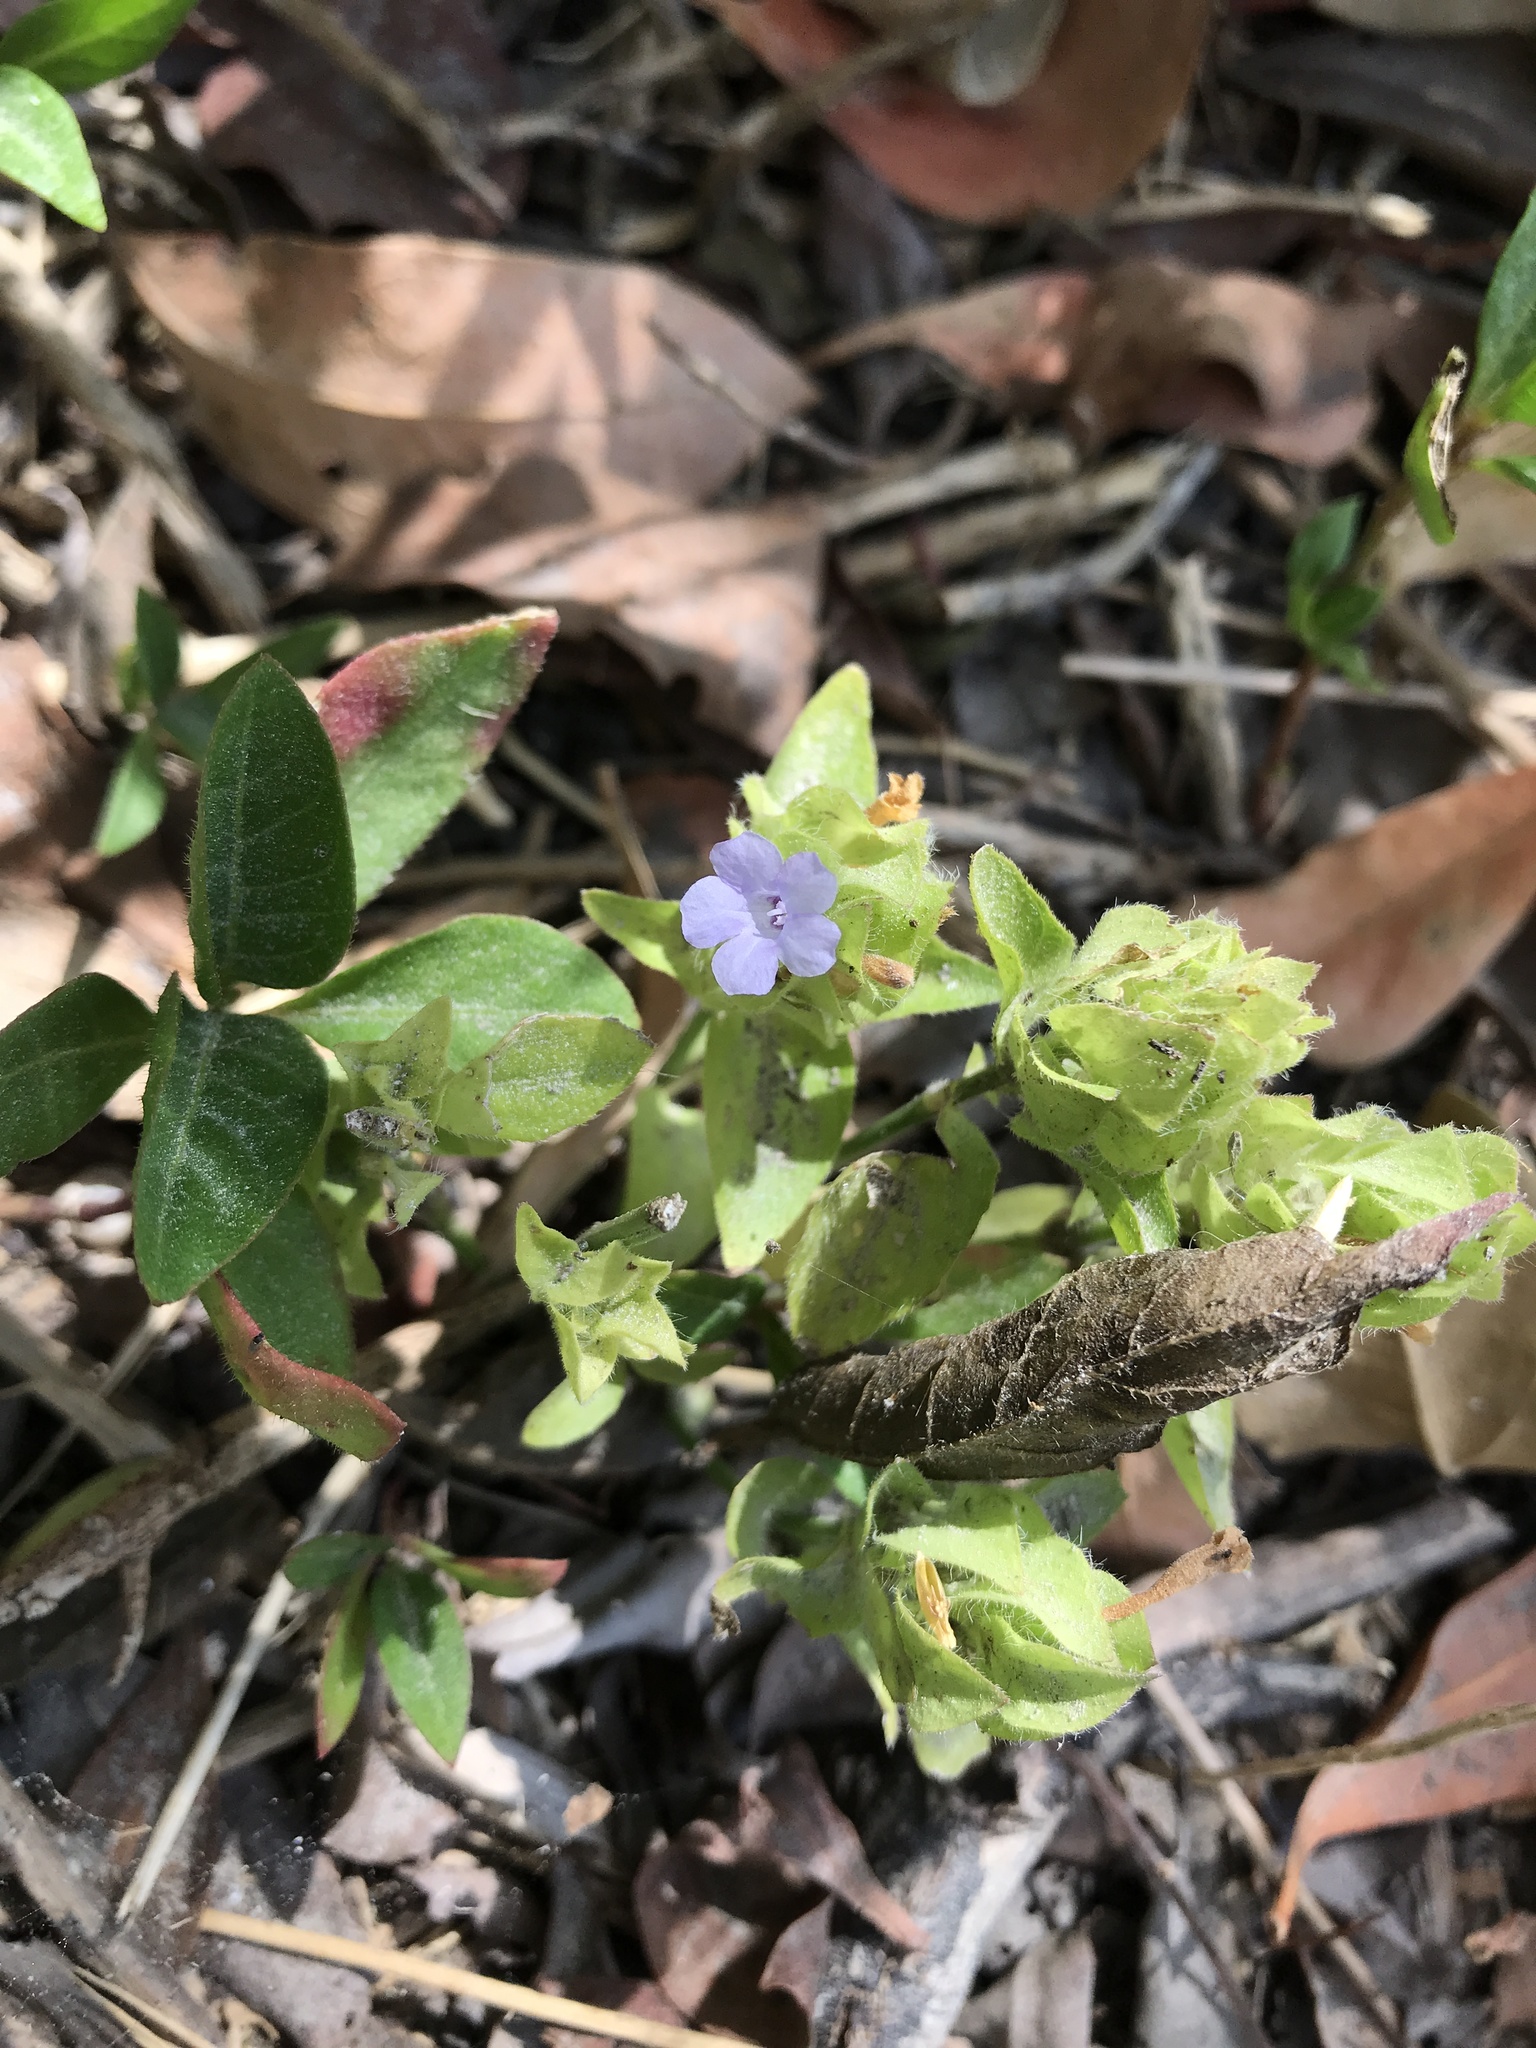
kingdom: Plantae
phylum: Tracheophyta
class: Magnoliopsida
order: Lamiales
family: Acanthaceae
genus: Ruellia
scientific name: Ruellia blechum
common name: Browne's blechum
